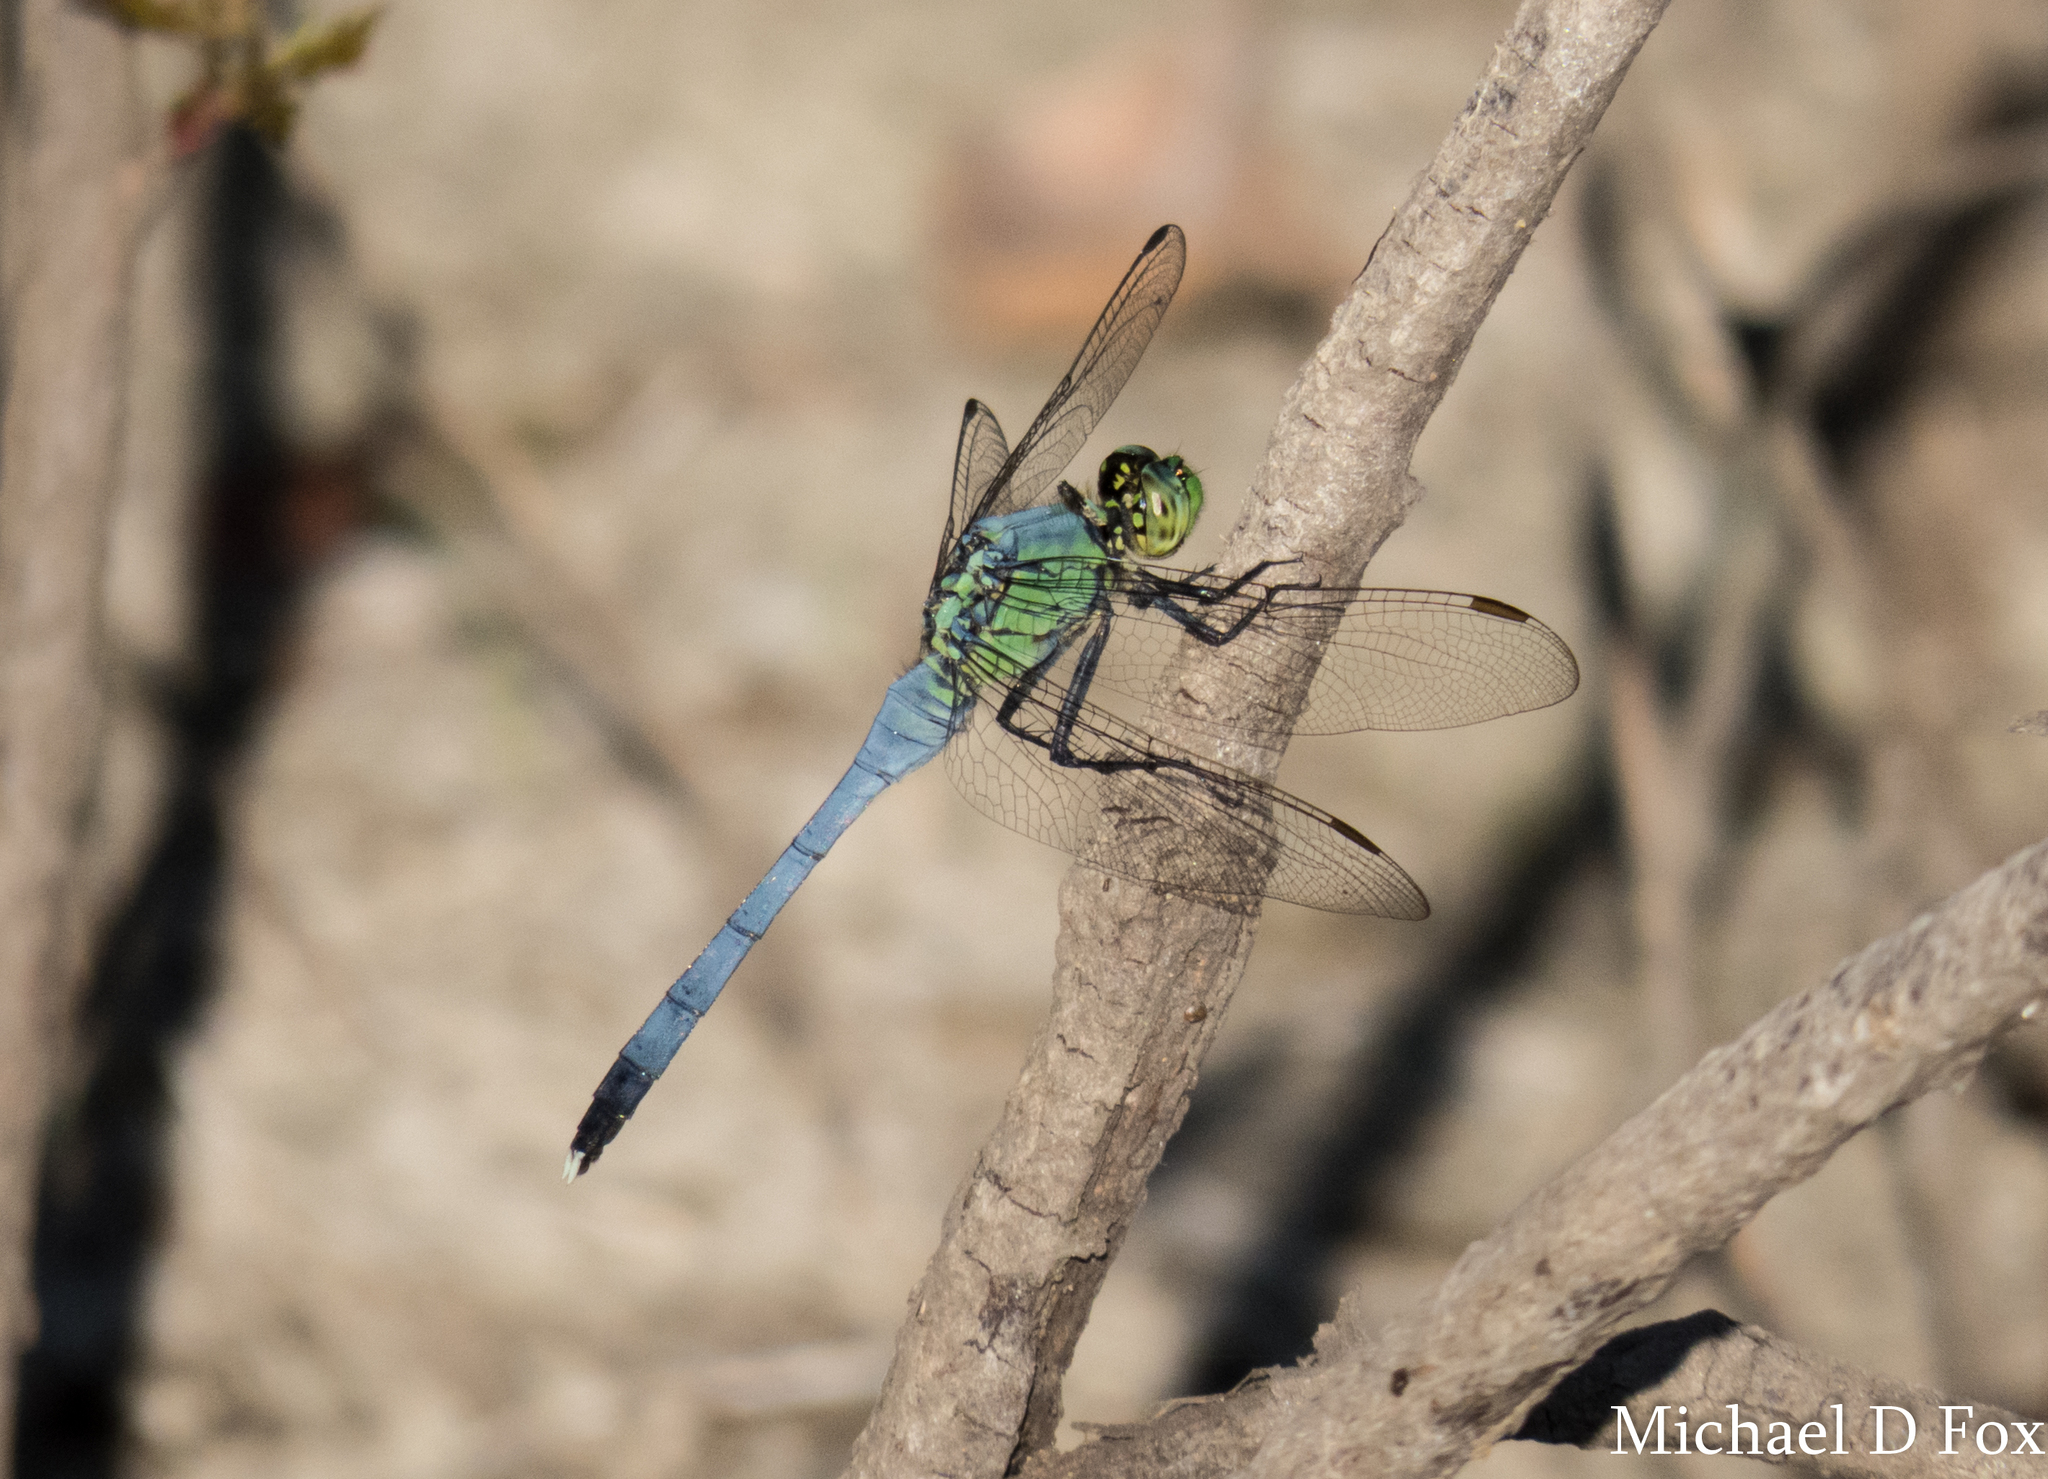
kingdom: Animalia
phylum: Arthropoda
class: Insecta
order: Odonata
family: Libellulidae
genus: Erythemis
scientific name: Erythemis simplicicollis
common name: Eastern pondhawk
